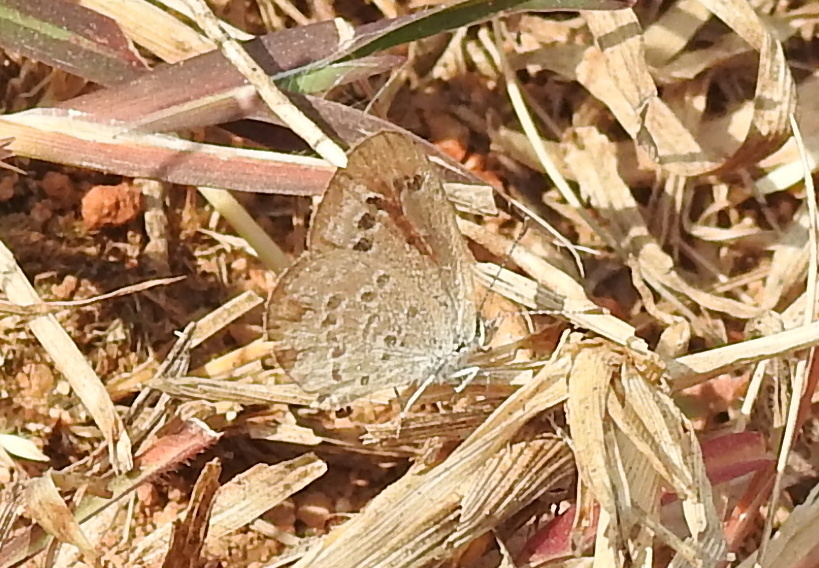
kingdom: Animalia
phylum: Arthropoda
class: Insecta
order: Lepidoptera
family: Lycaenidae
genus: Zizina
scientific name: Zizina otis
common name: Lesser grass blue
